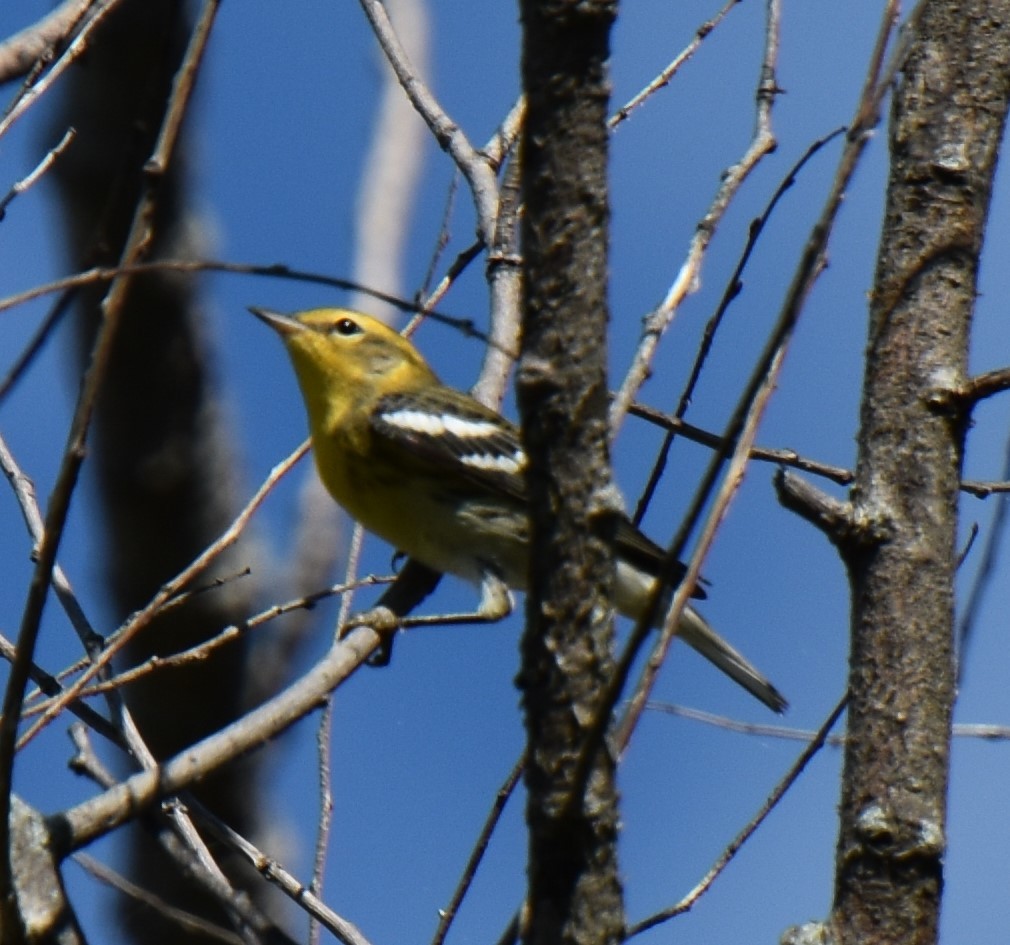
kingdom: Animalia
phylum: Chordata
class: Aves
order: Passeriformes
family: Parulidae
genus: Setophaga
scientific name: Setophaga fusca
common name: Blackburnian warbler
